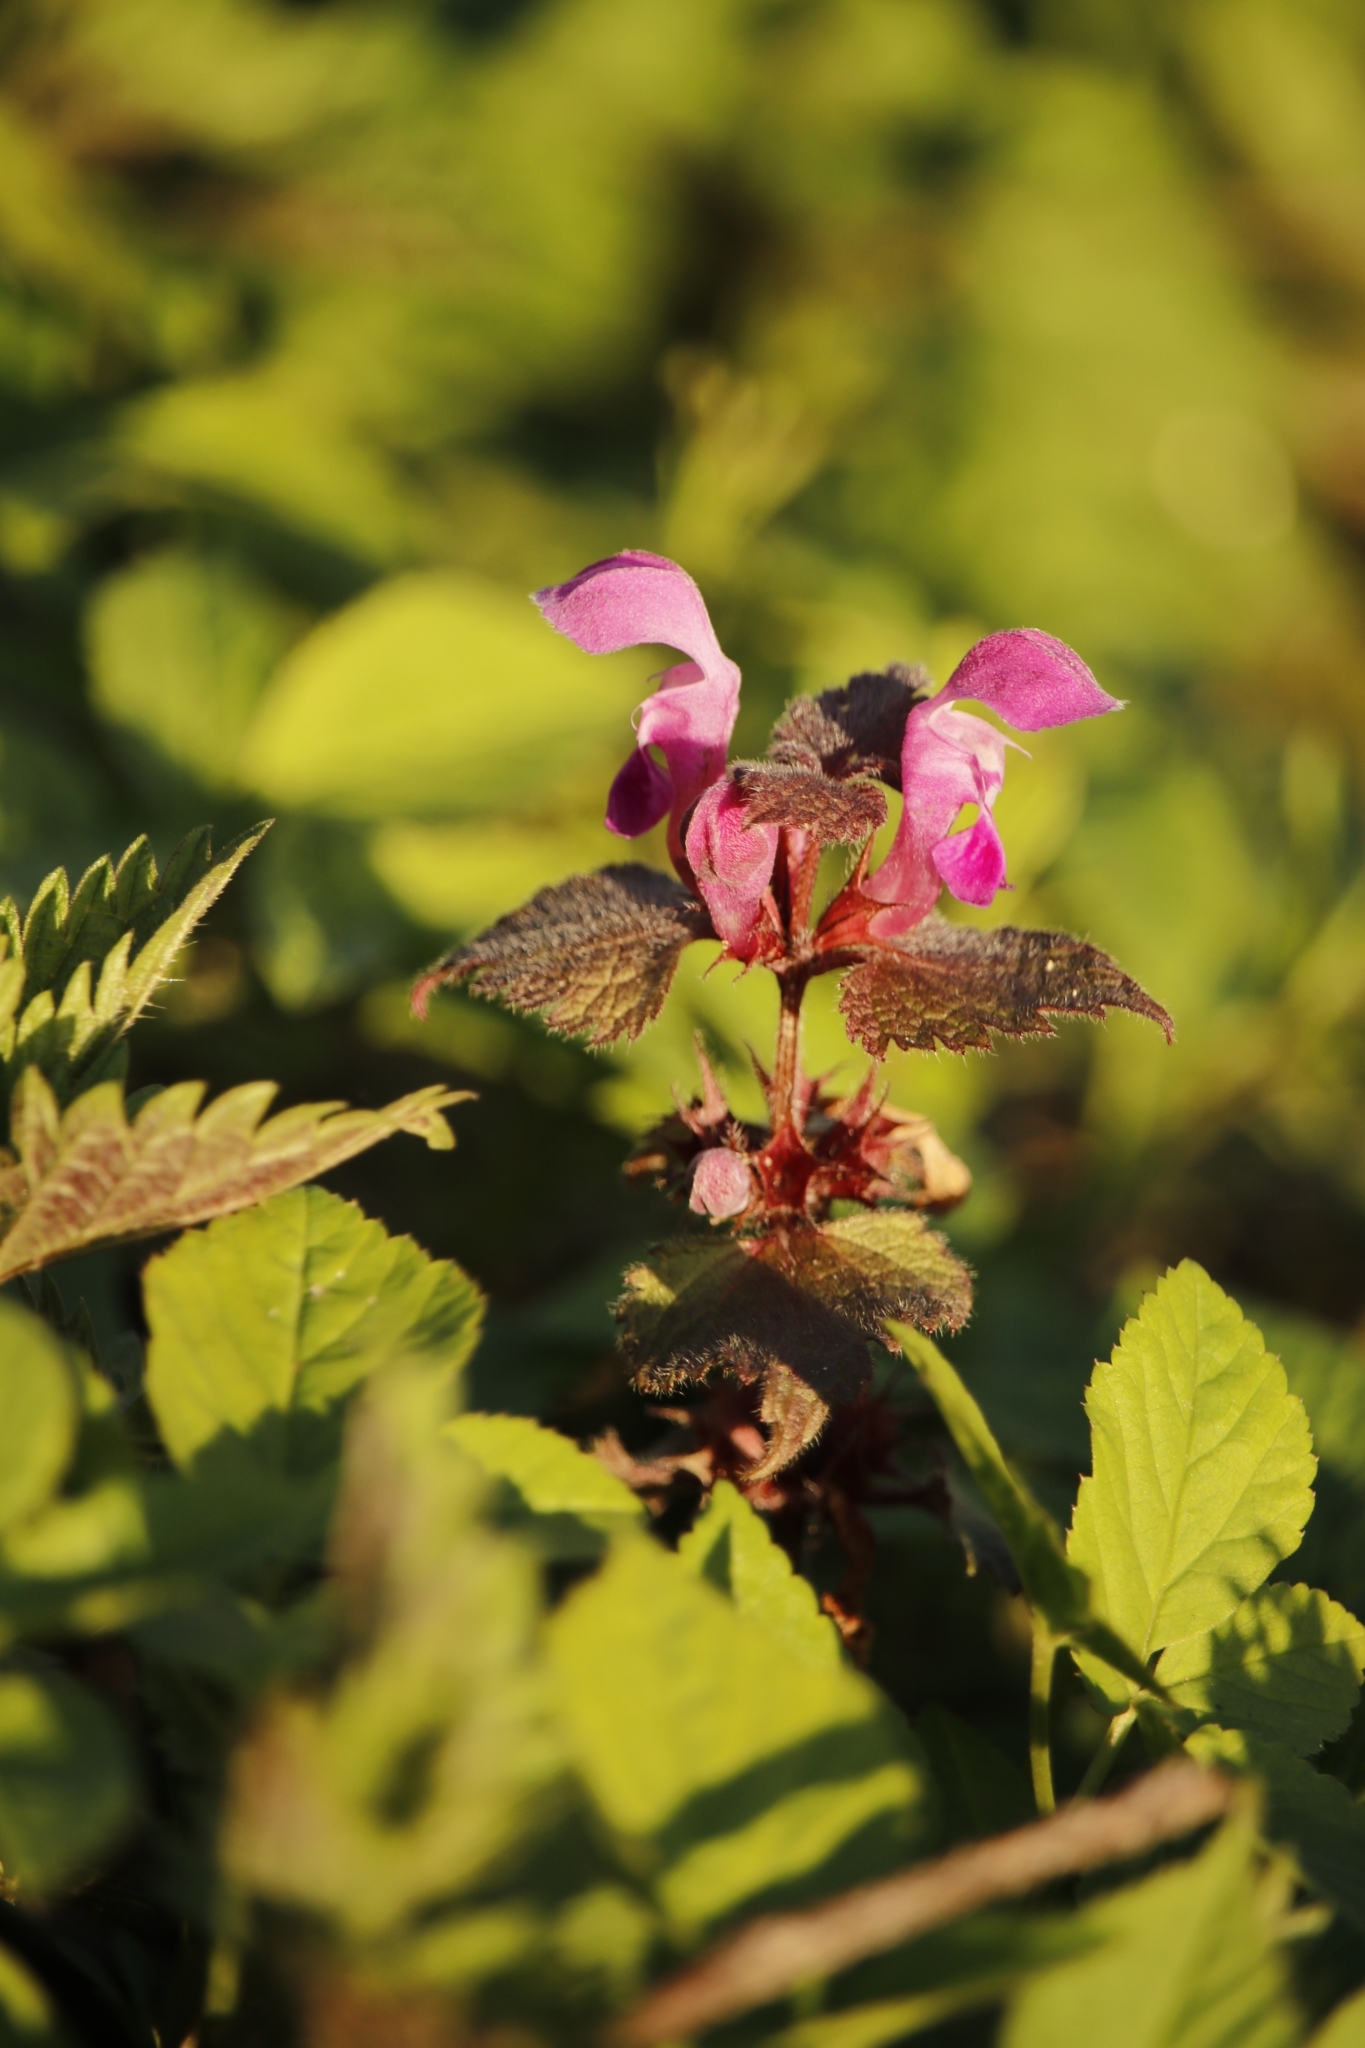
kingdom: Plantae
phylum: Tracheophyta
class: Magnoliopsida
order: Lamiales
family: Lamiaceae
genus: Lamium
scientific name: Lamium maculatum
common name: Spotted dead-nettle
